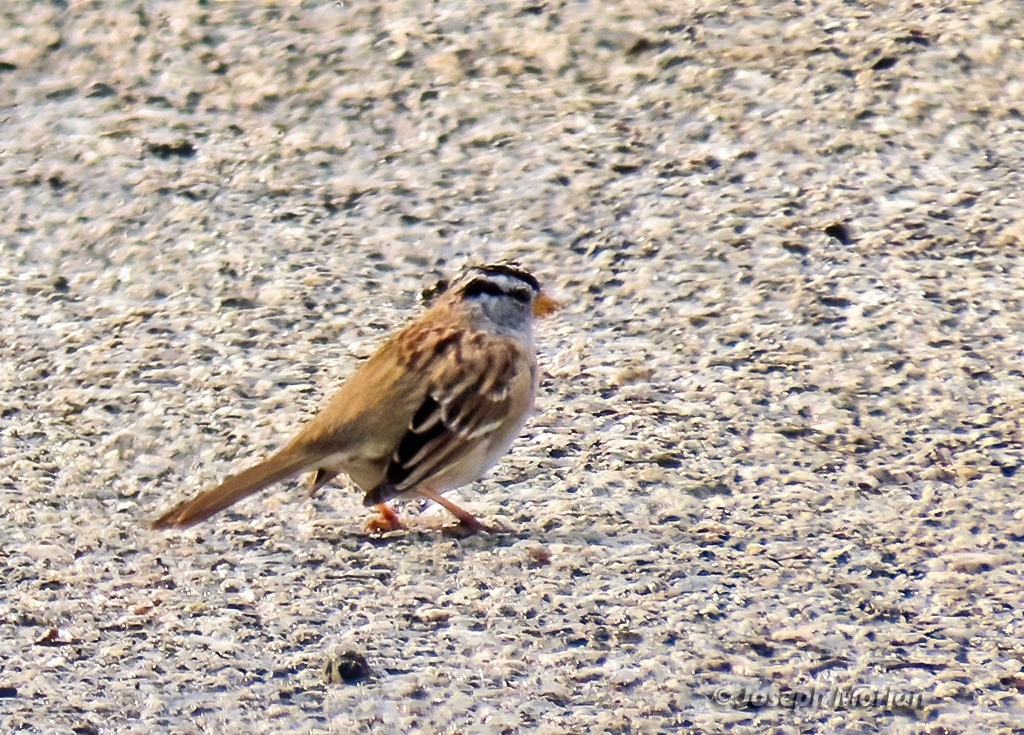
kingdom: Animalia
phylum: Chordata
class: Aves
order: Passeriformes
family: Passerellidae
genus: Zonotrichia
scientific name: Zonotrichia leucophrys
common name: White-crowned sparrow
